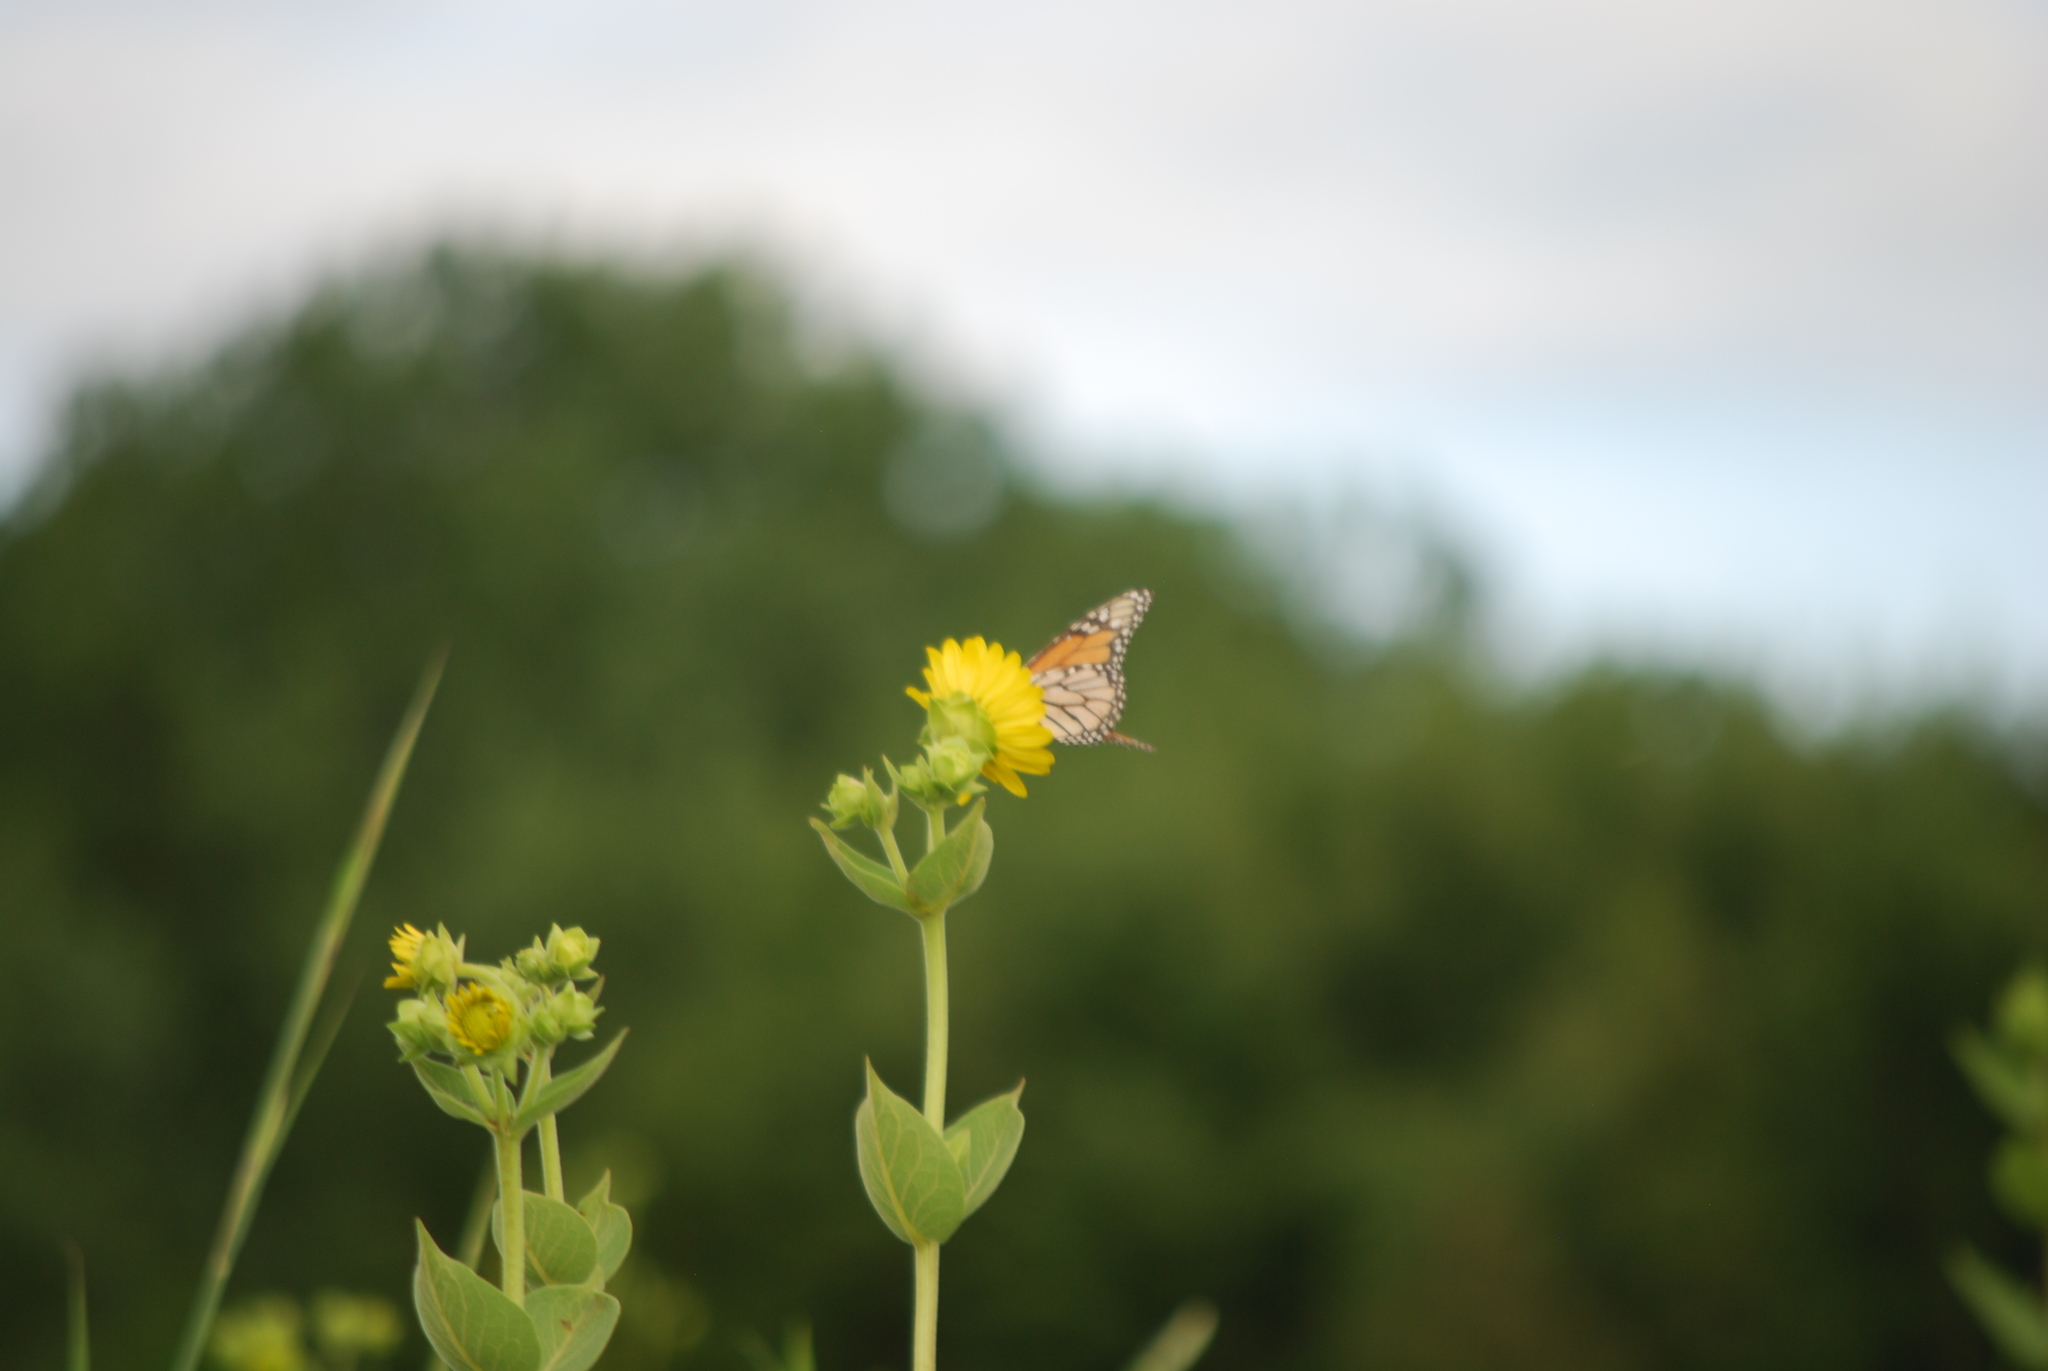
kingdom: Animalia
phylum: Arthropoda
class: Insecta
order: Lepidoptera
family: Nymphalidae
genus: Danaus
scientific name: Danaus plexippus
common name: Monarch
